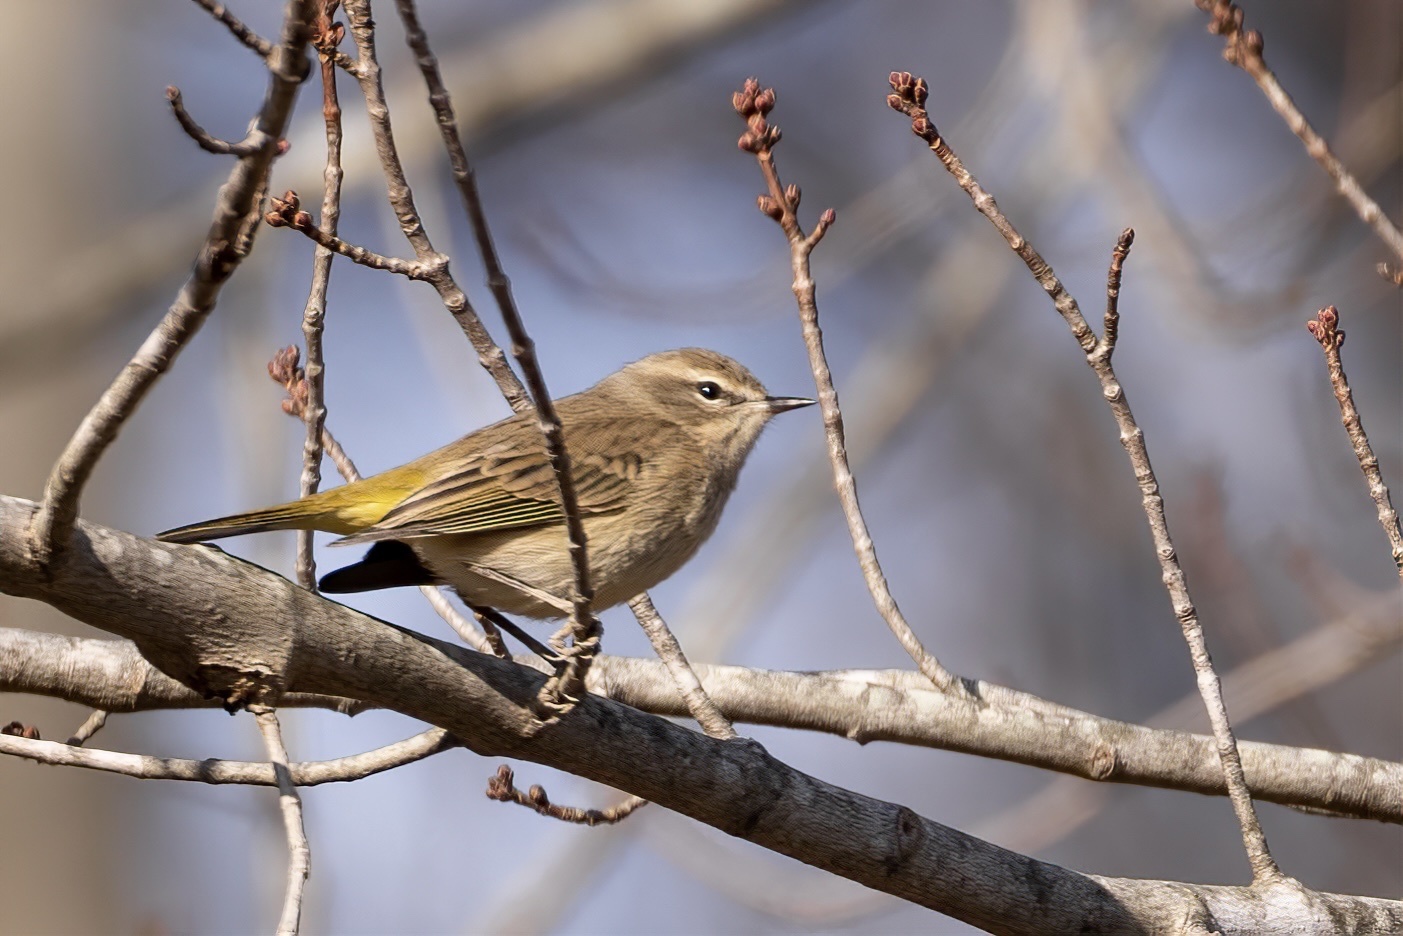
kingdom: Animalia
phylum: Chordata
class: Aves
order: Passeriformes
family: Parulidae
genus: Setophaga
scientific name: Setophaga palmarum
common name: Palm warbler
